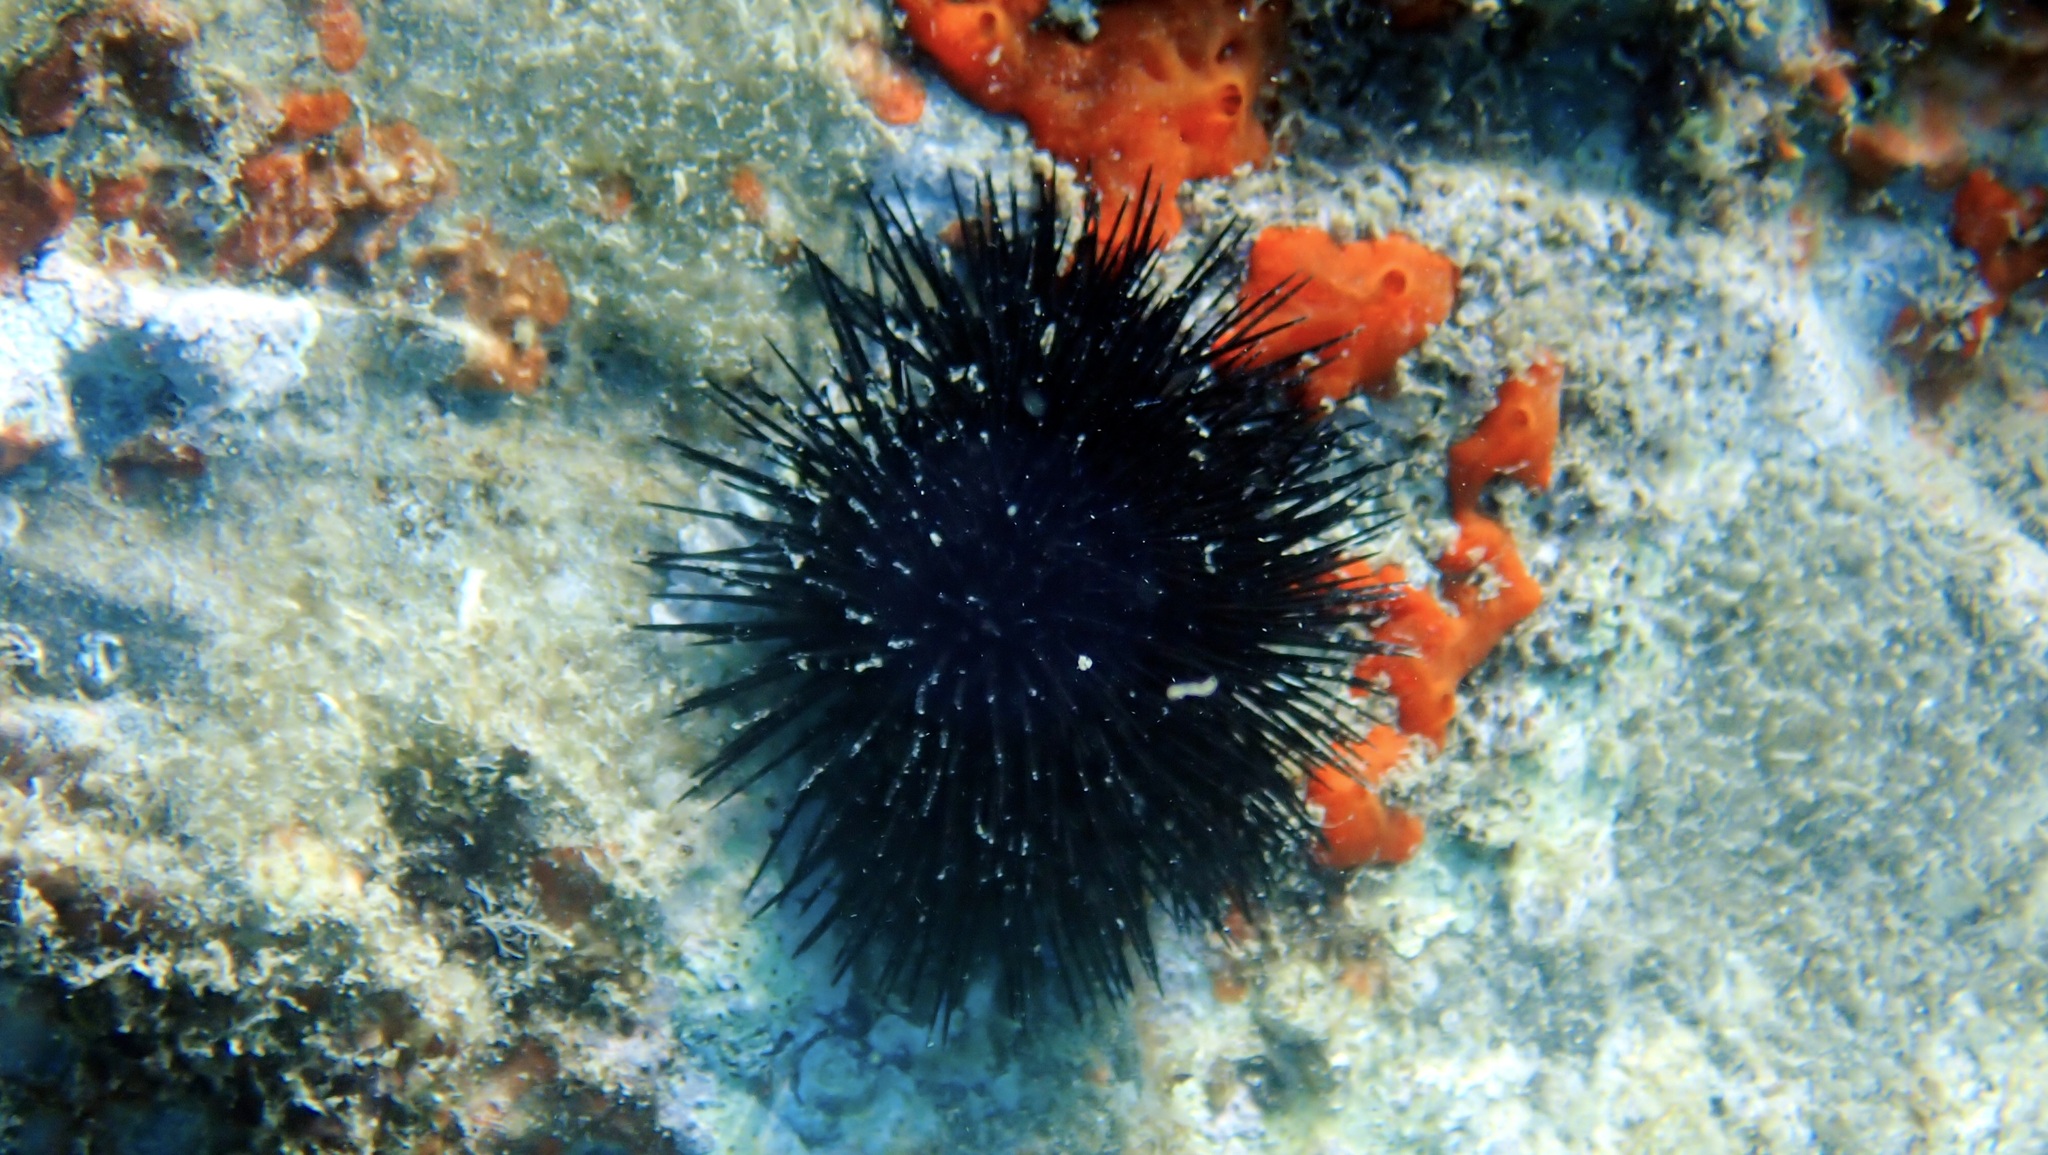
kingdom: Animalia
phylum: Echinodermata
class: Echinoidea
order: Arbacioida
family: Arbaciidae
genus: Arbacia
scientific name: Arbacia lixula
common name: Black sea urchin
